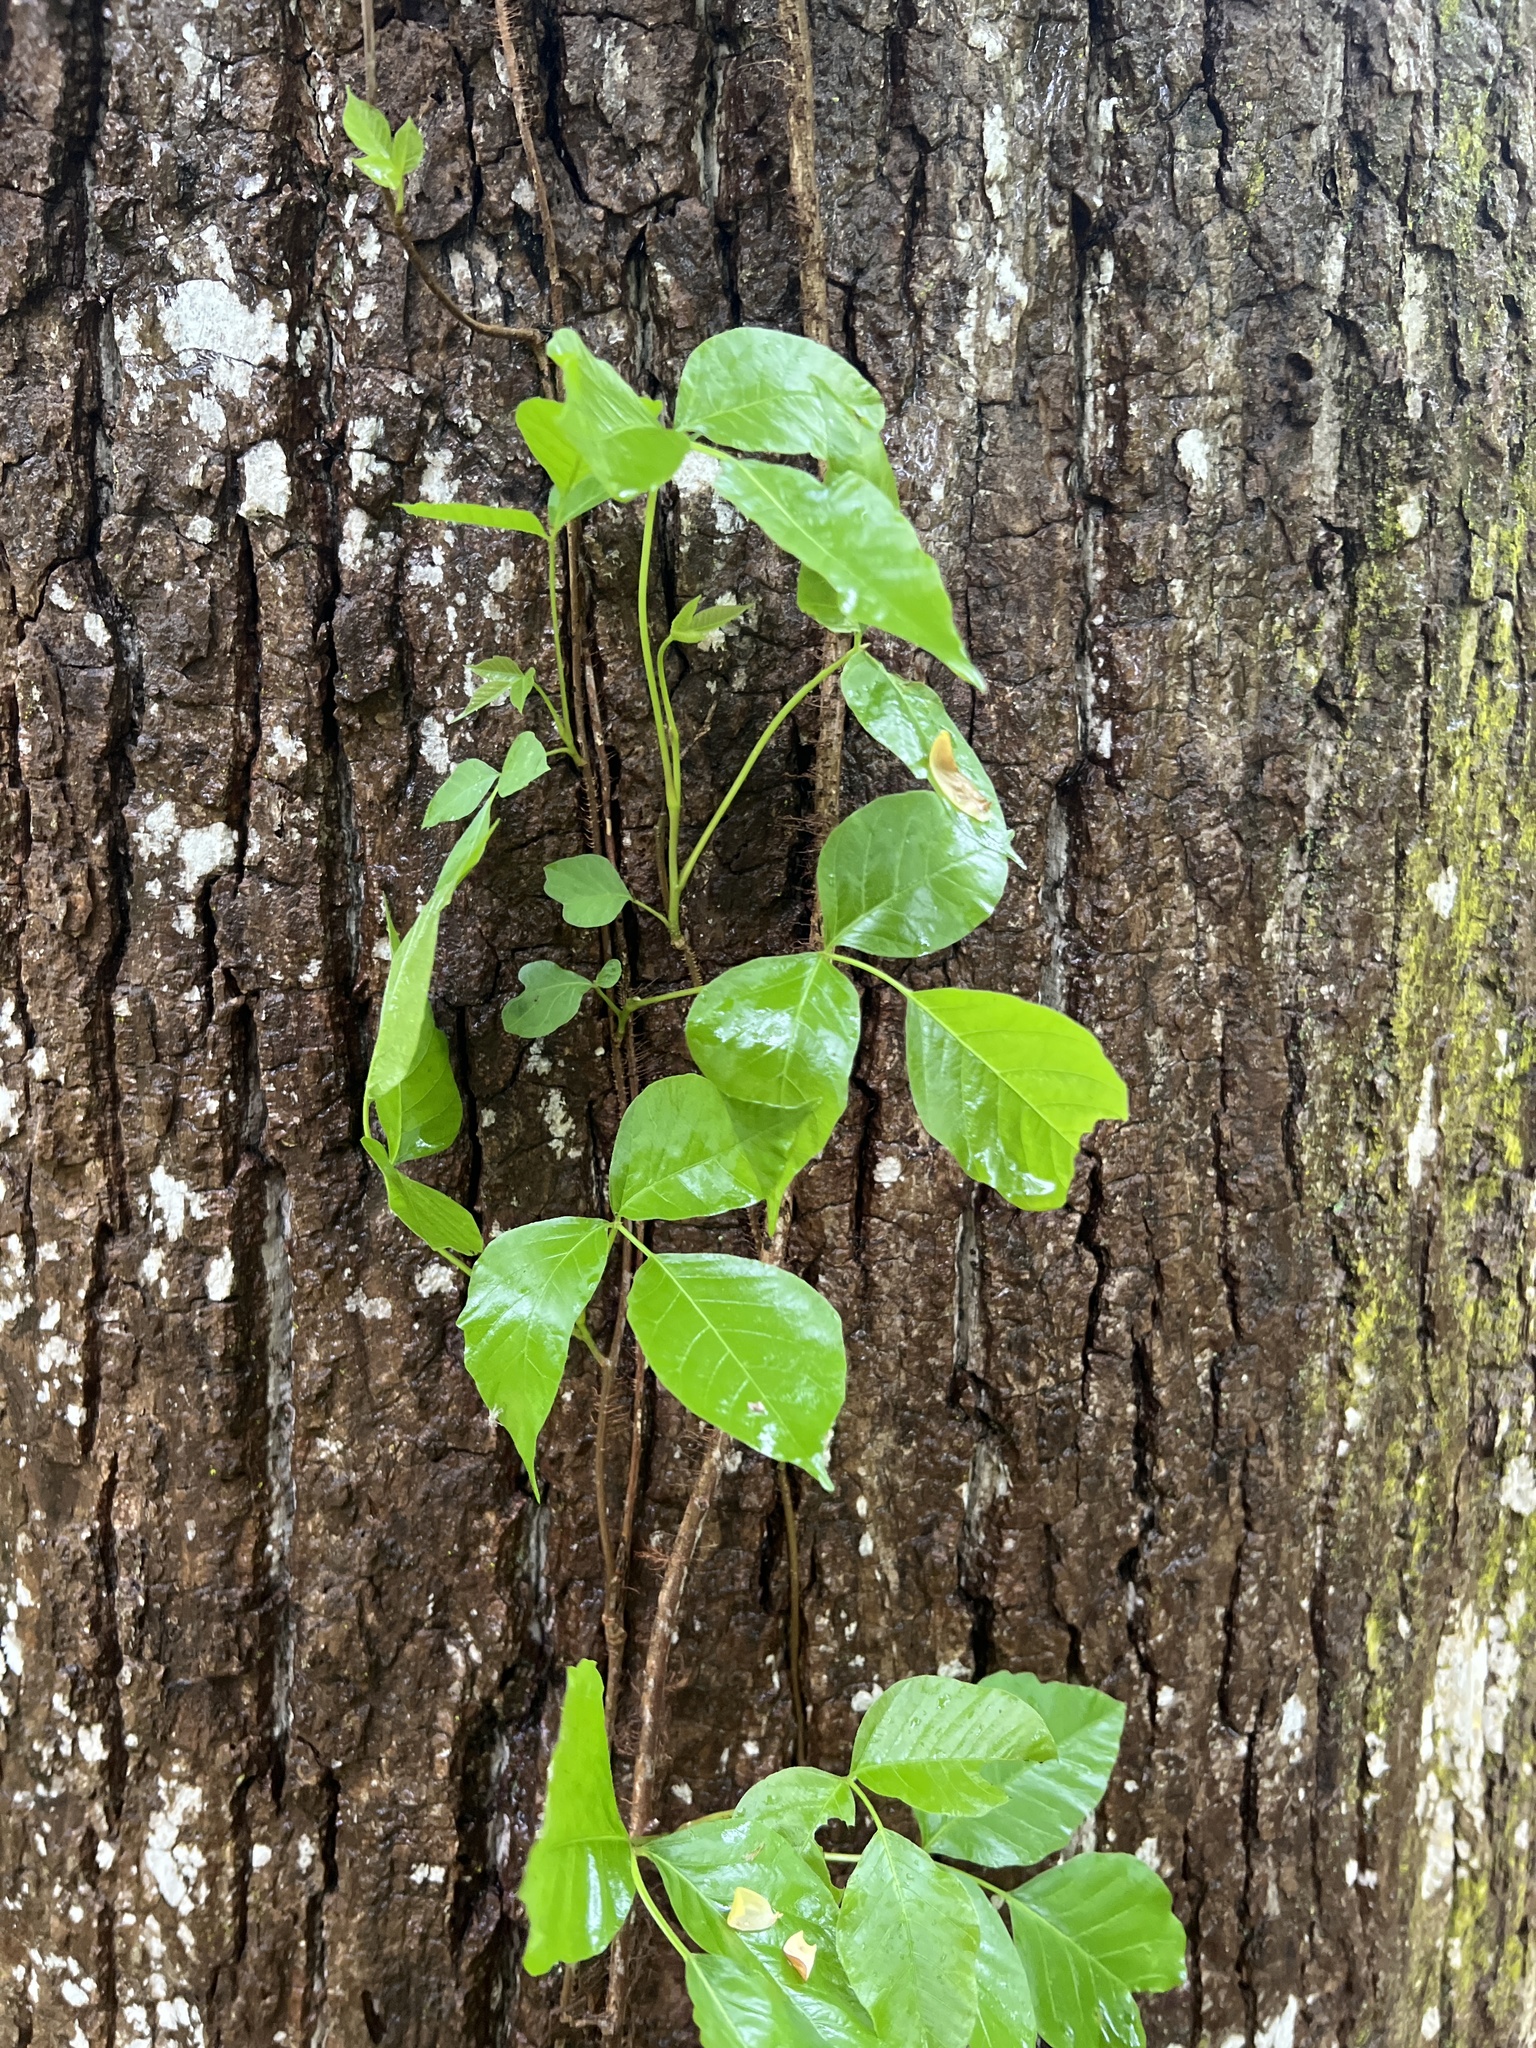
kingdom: Plantae
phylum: Tracheophyta
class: Magnoliopsida
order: Sapindales
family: Anacardiaceae
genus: Toxicodendron
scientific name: Toxicodendron radicans
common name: Poison ivy
